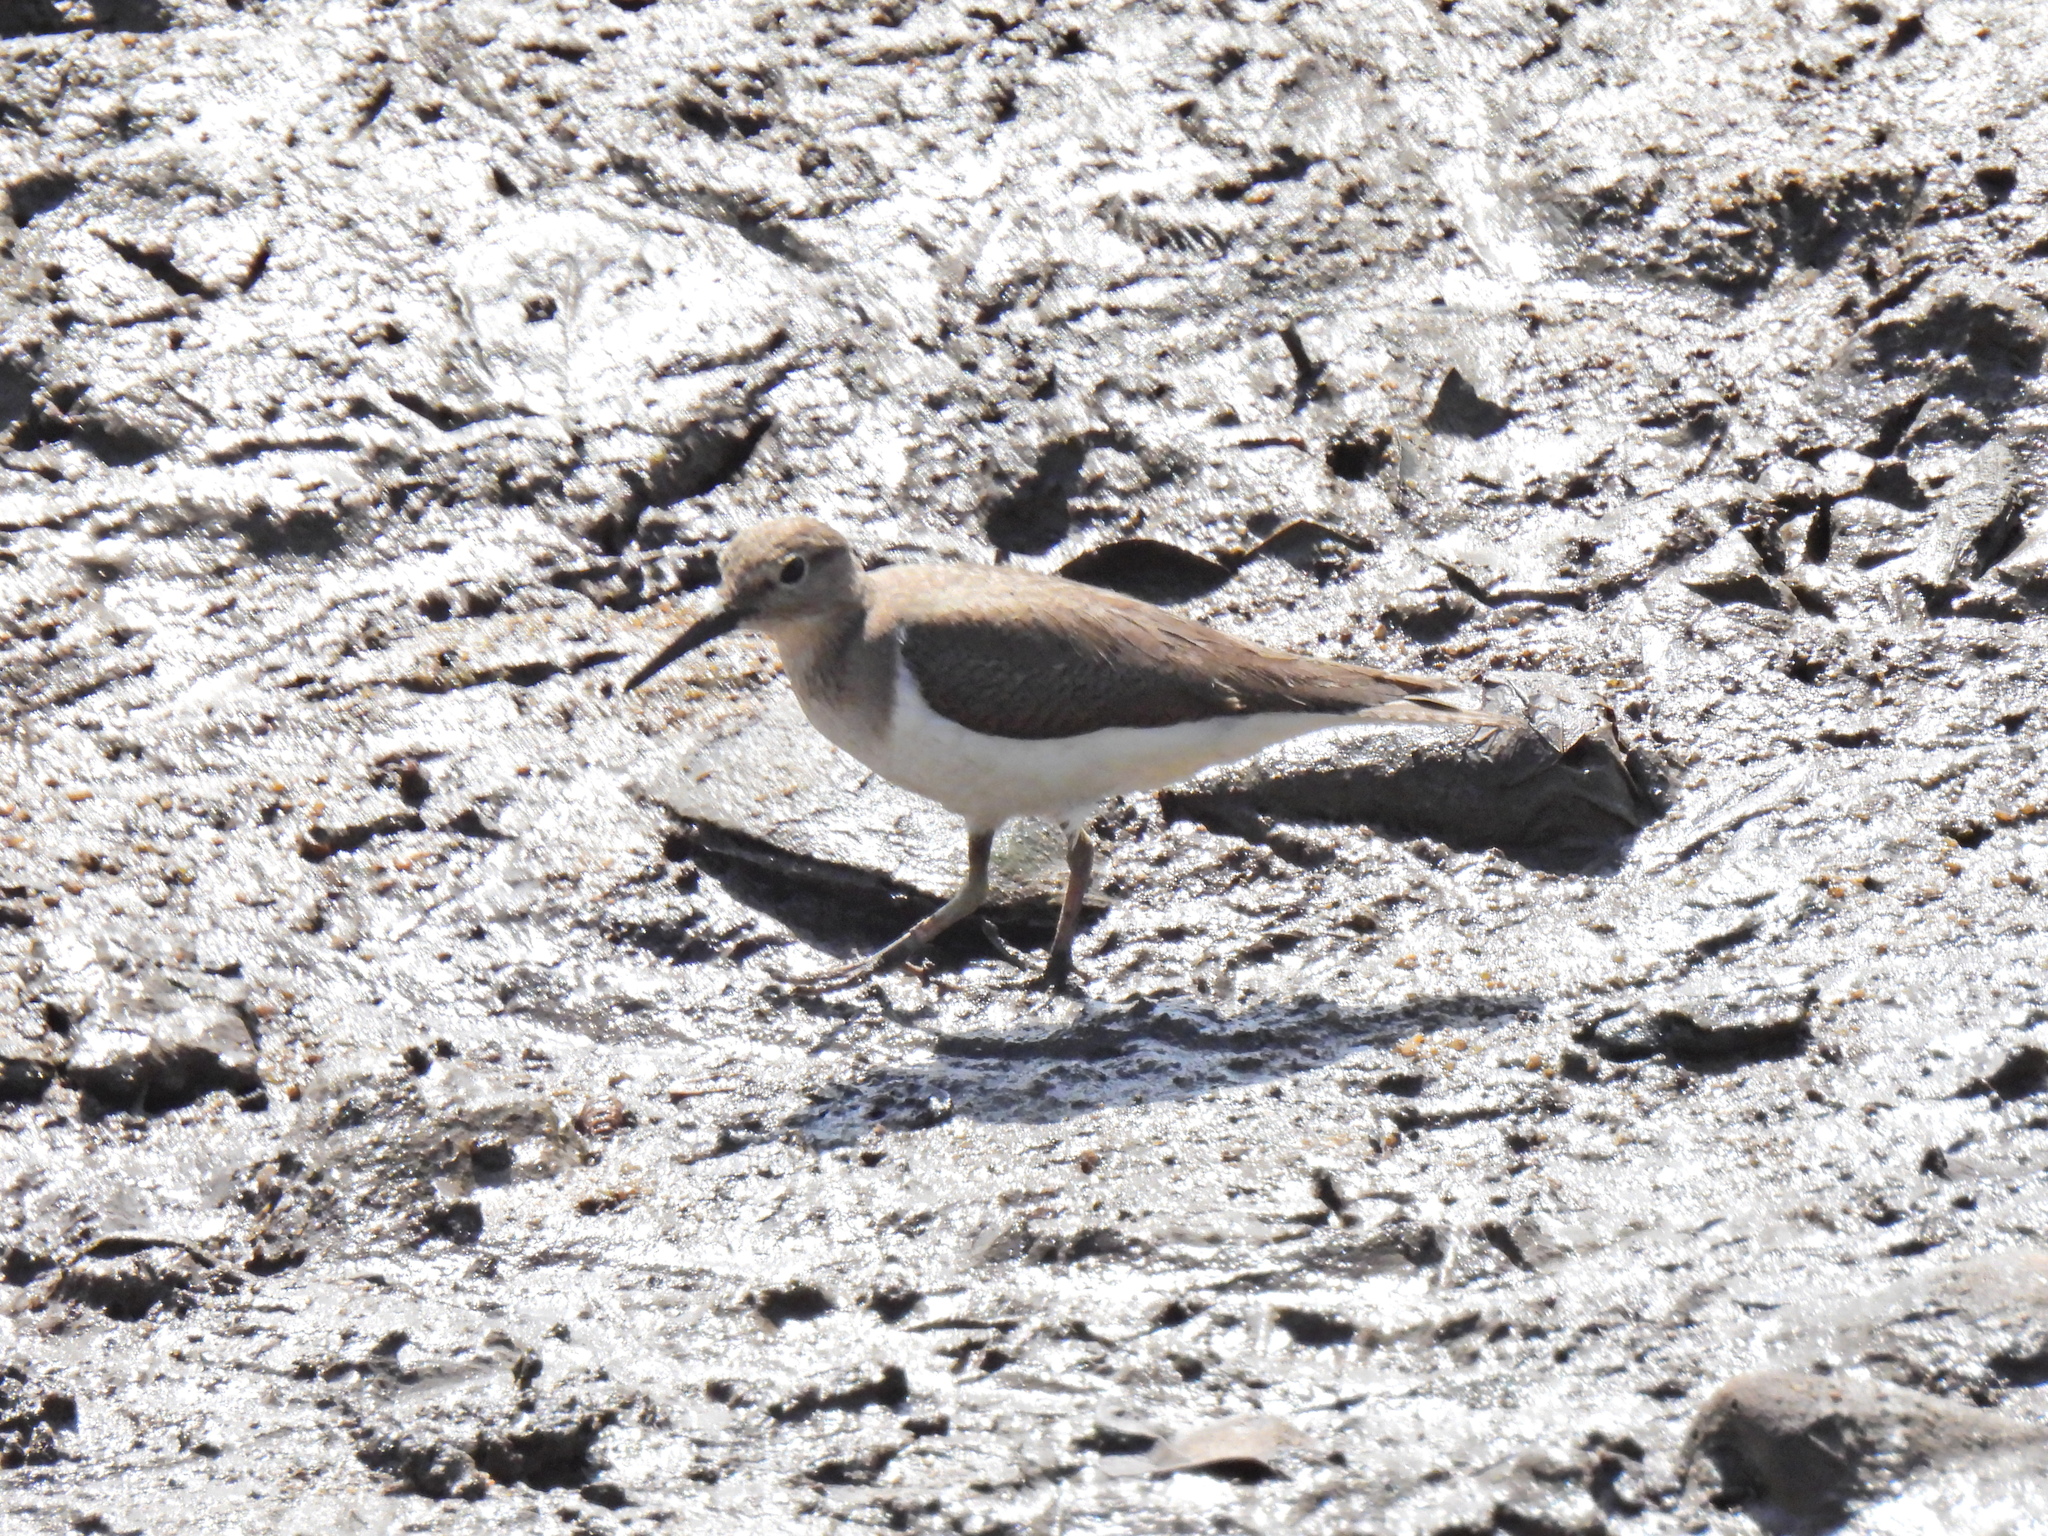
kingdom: Animalia
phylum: Chordata
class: Aves
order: Charadriiformes
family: Scolopacidae
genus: Actitis
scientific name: Actitis hypoleucos
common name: Common sandpiper
